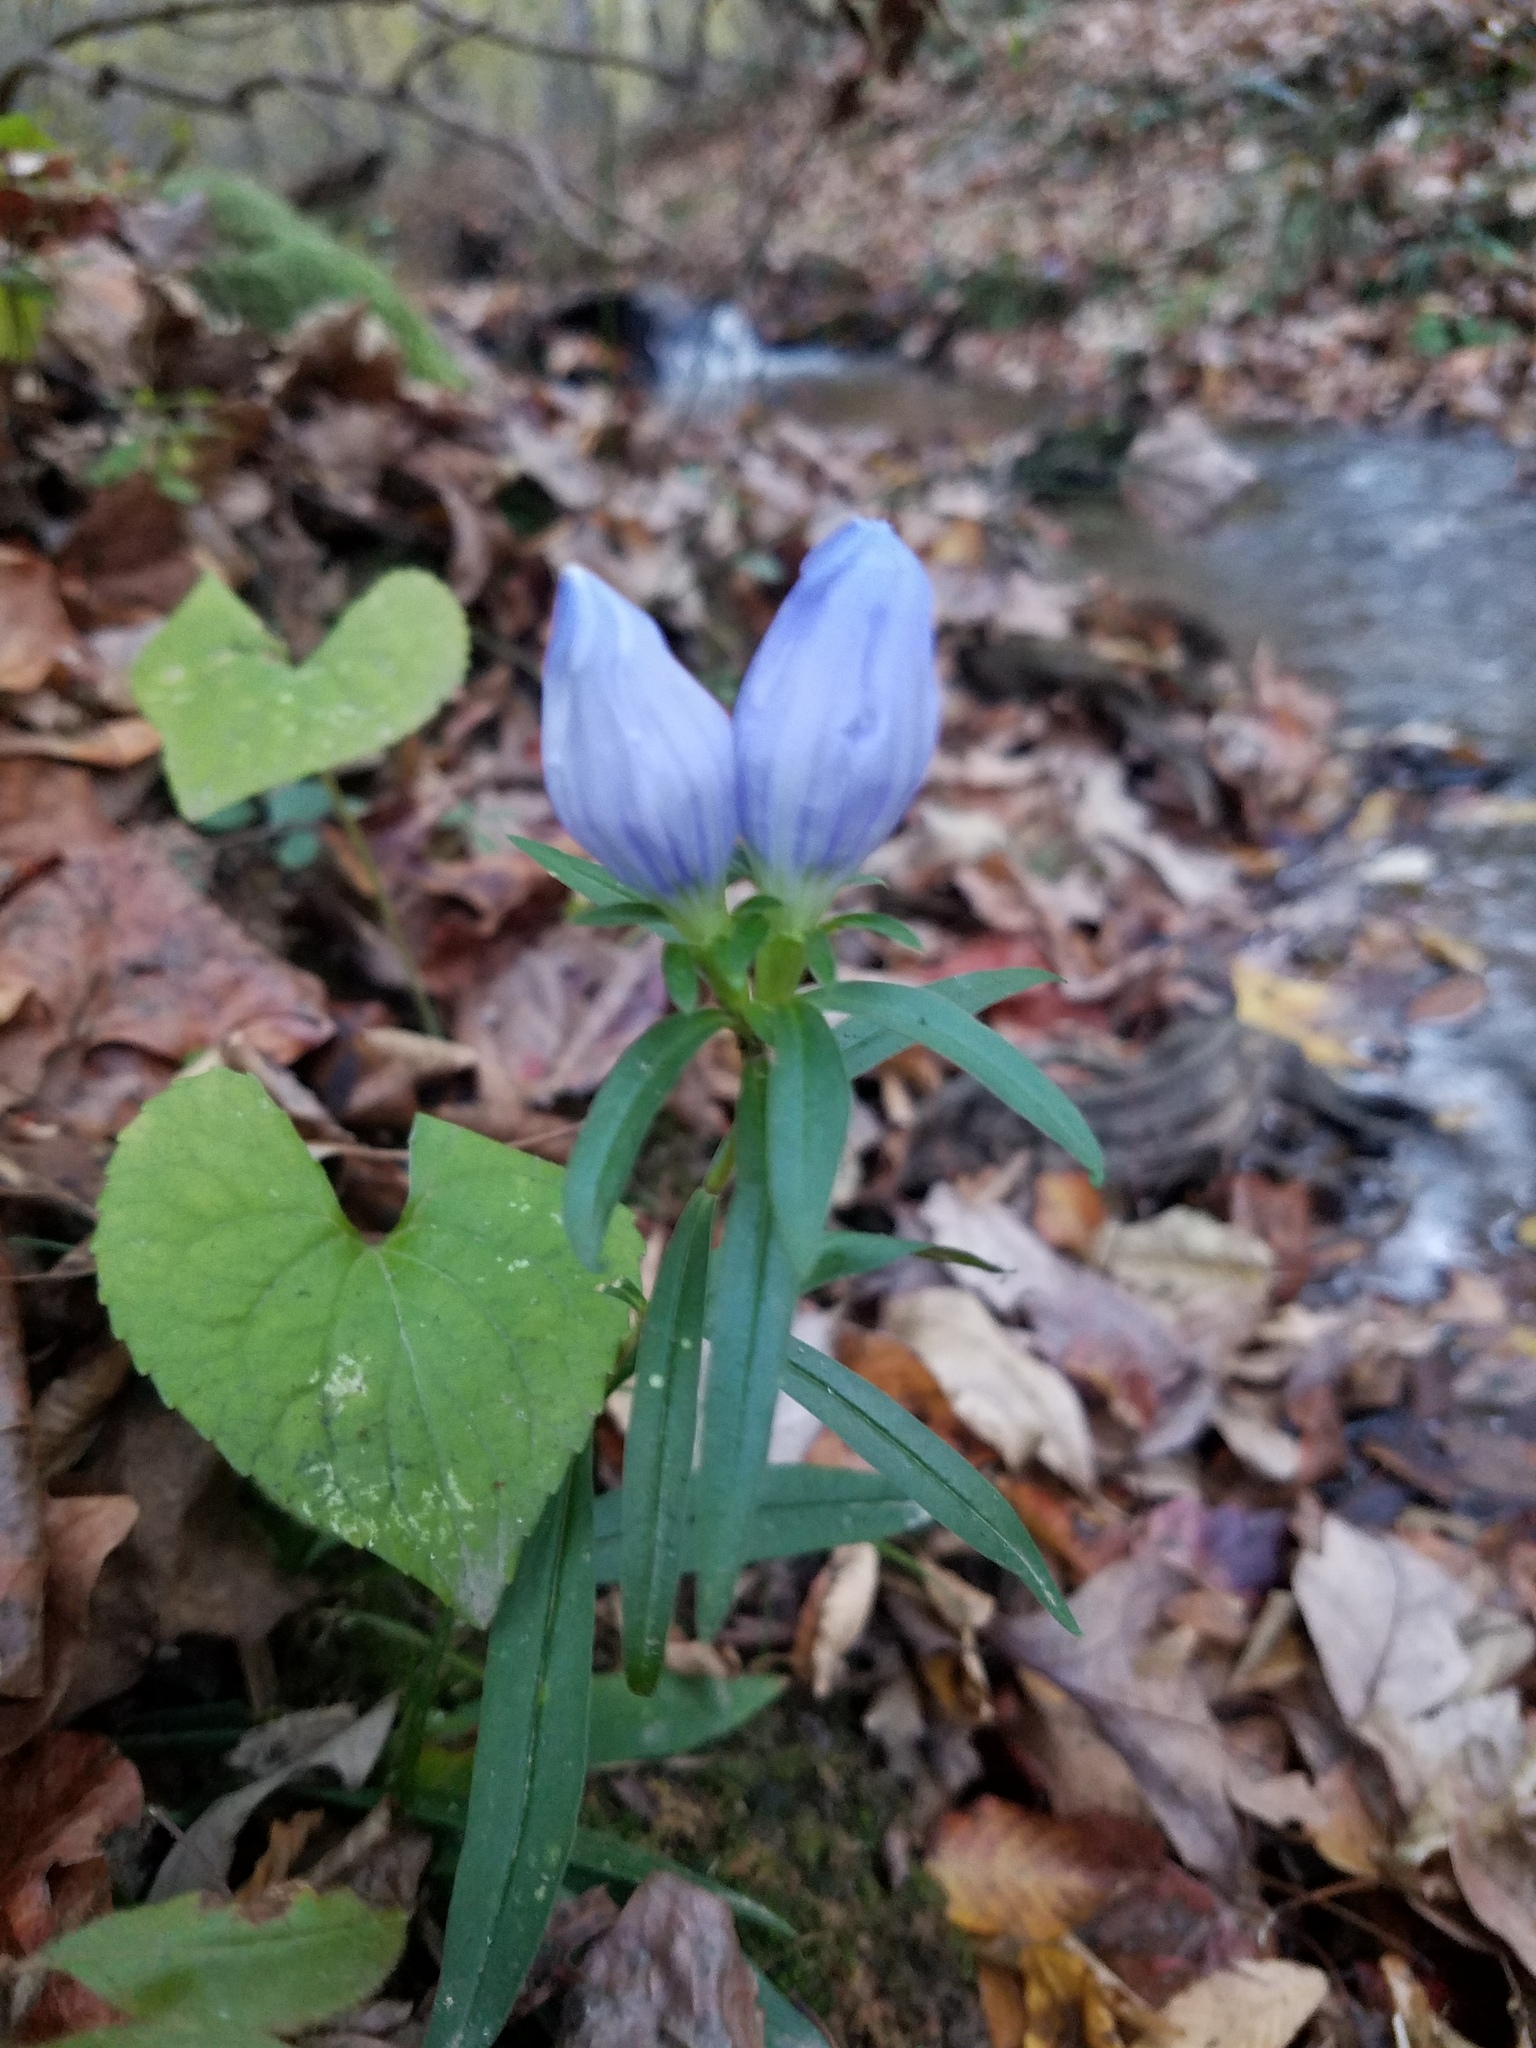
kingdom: Plantae
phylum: Tracheophyta
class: Magnoliopsida
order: Gentianales
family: Gentianaceae
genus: Gentiana
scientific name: Gentiana saponaria
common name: Soapwort gentian
